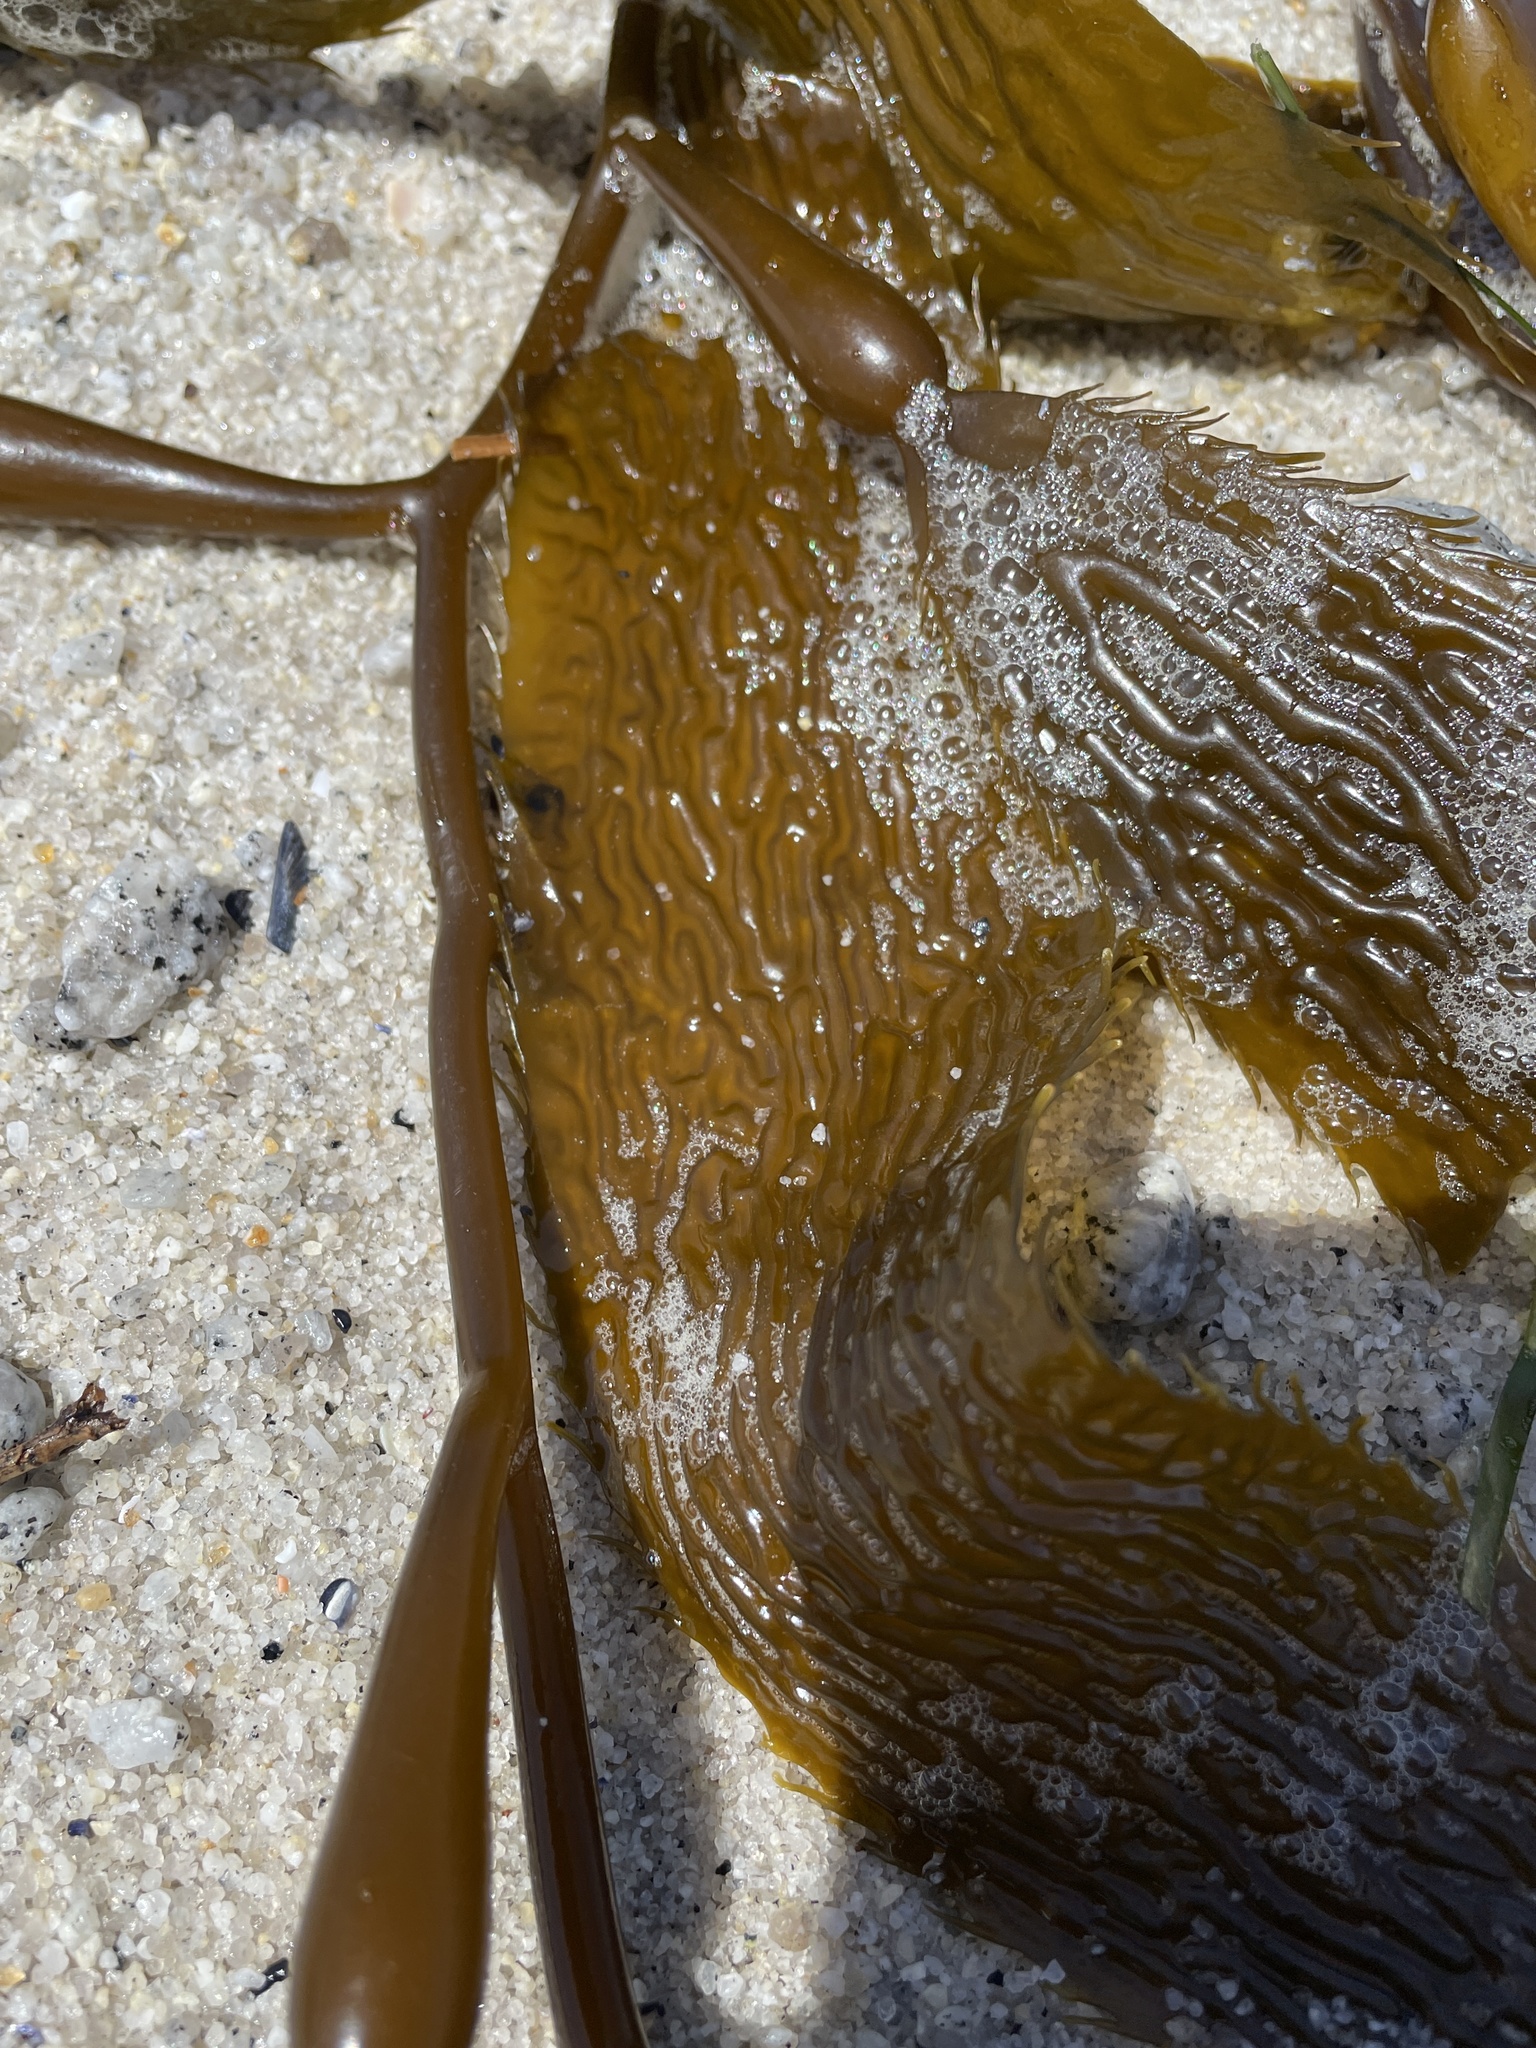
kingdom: Chromista
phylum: Ochrophyta
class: Phaeophyceae
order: Laminariales
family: Laminariaceae
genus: Macrocystis
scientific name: Macrocystis pyrifera
